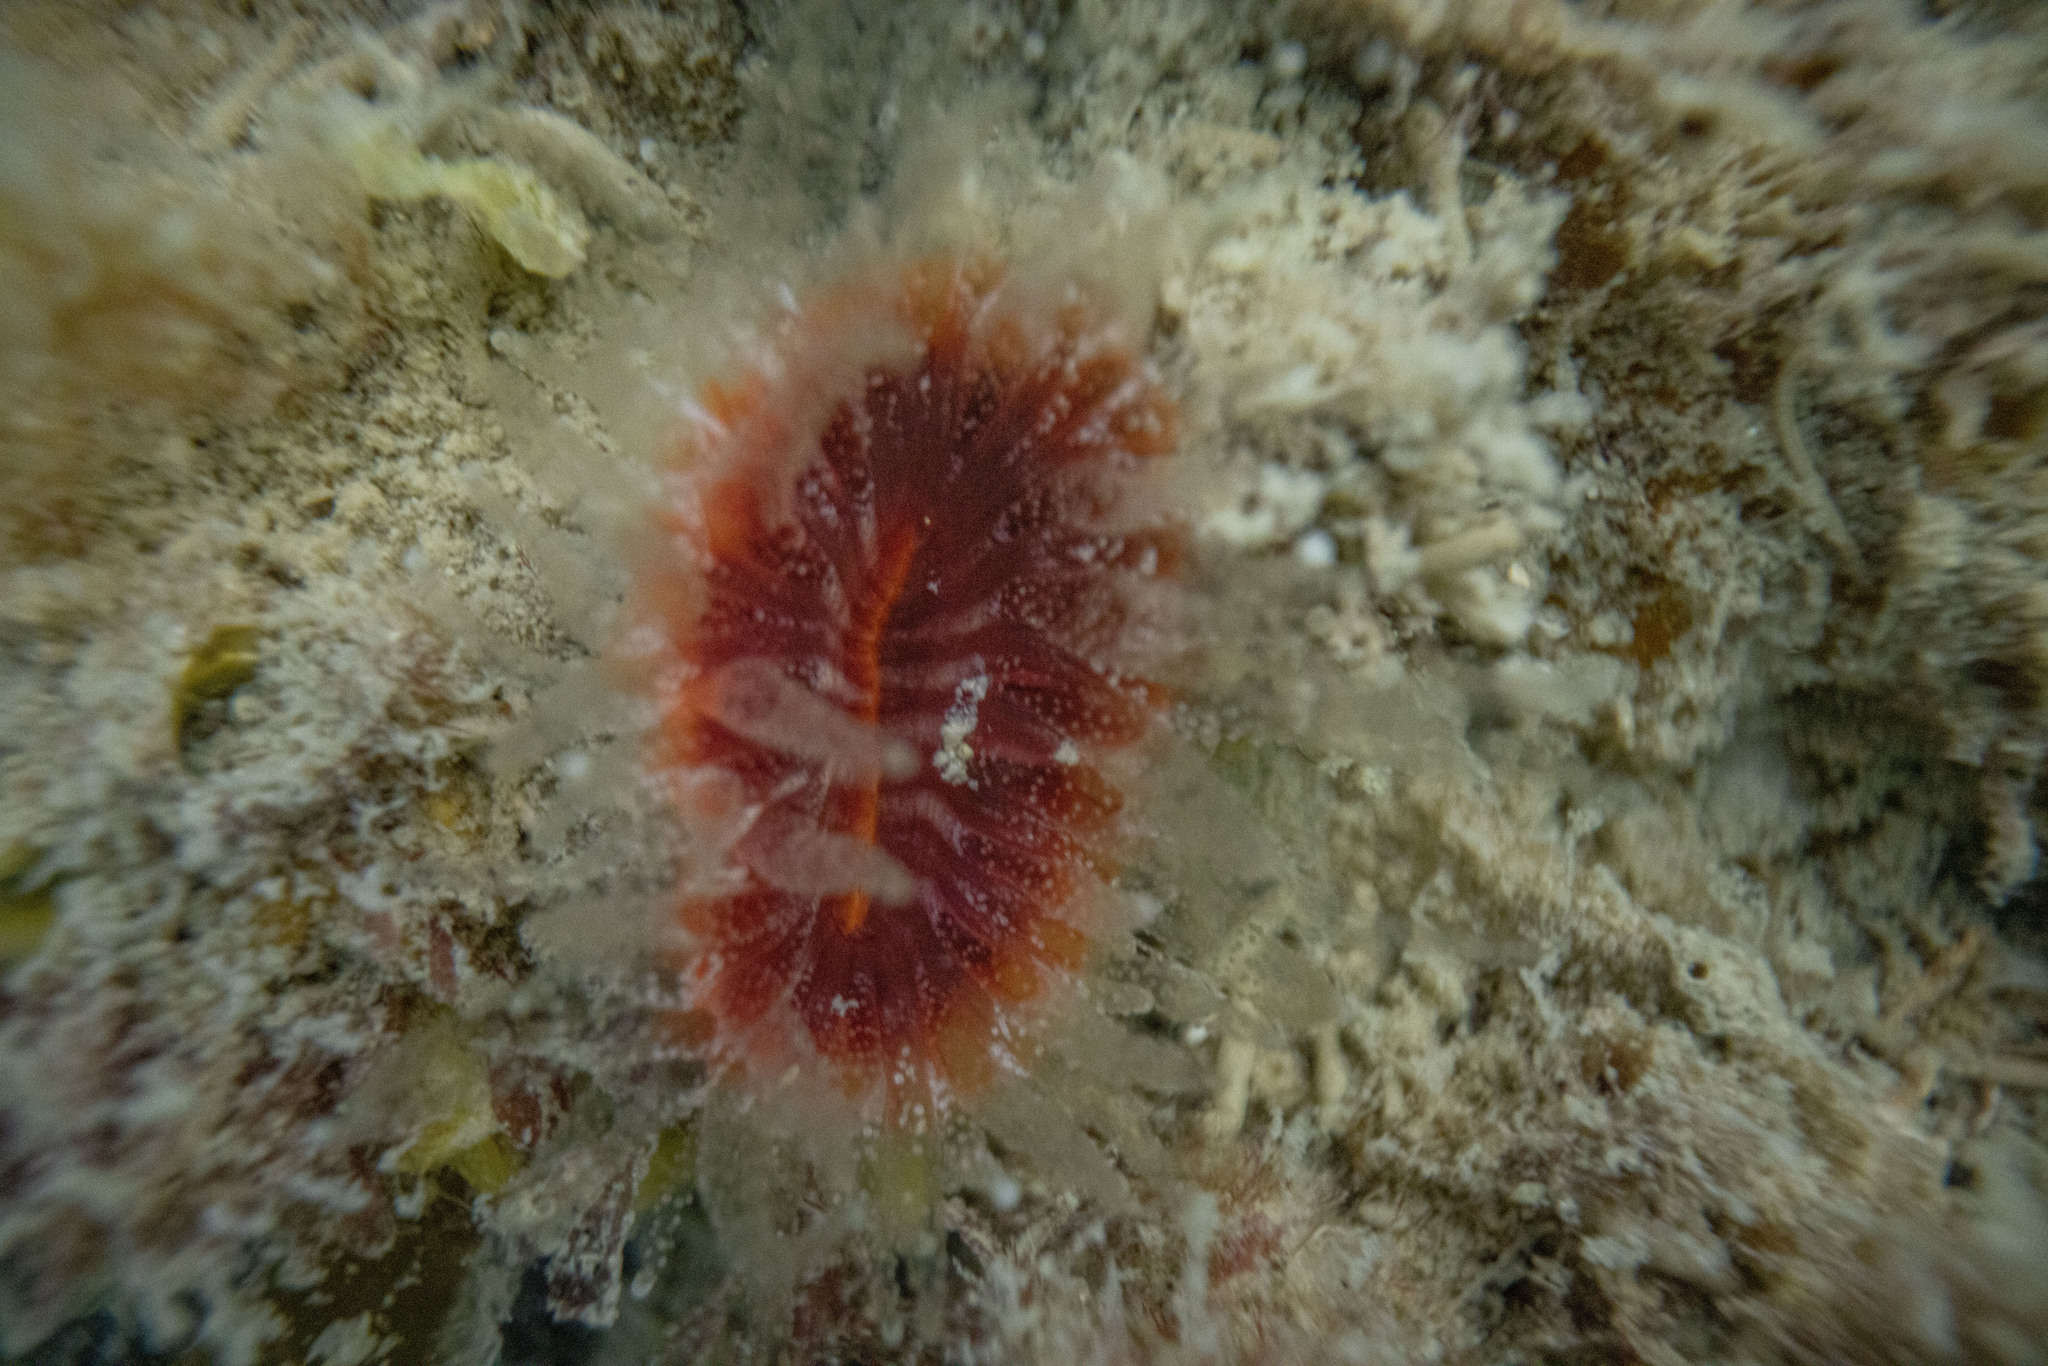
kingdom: Animalia
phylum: Cnidaria
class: Anthozoa
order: Scleractinia
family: Flabellidae
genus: Monomyces
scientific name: Monomyces rubrum
